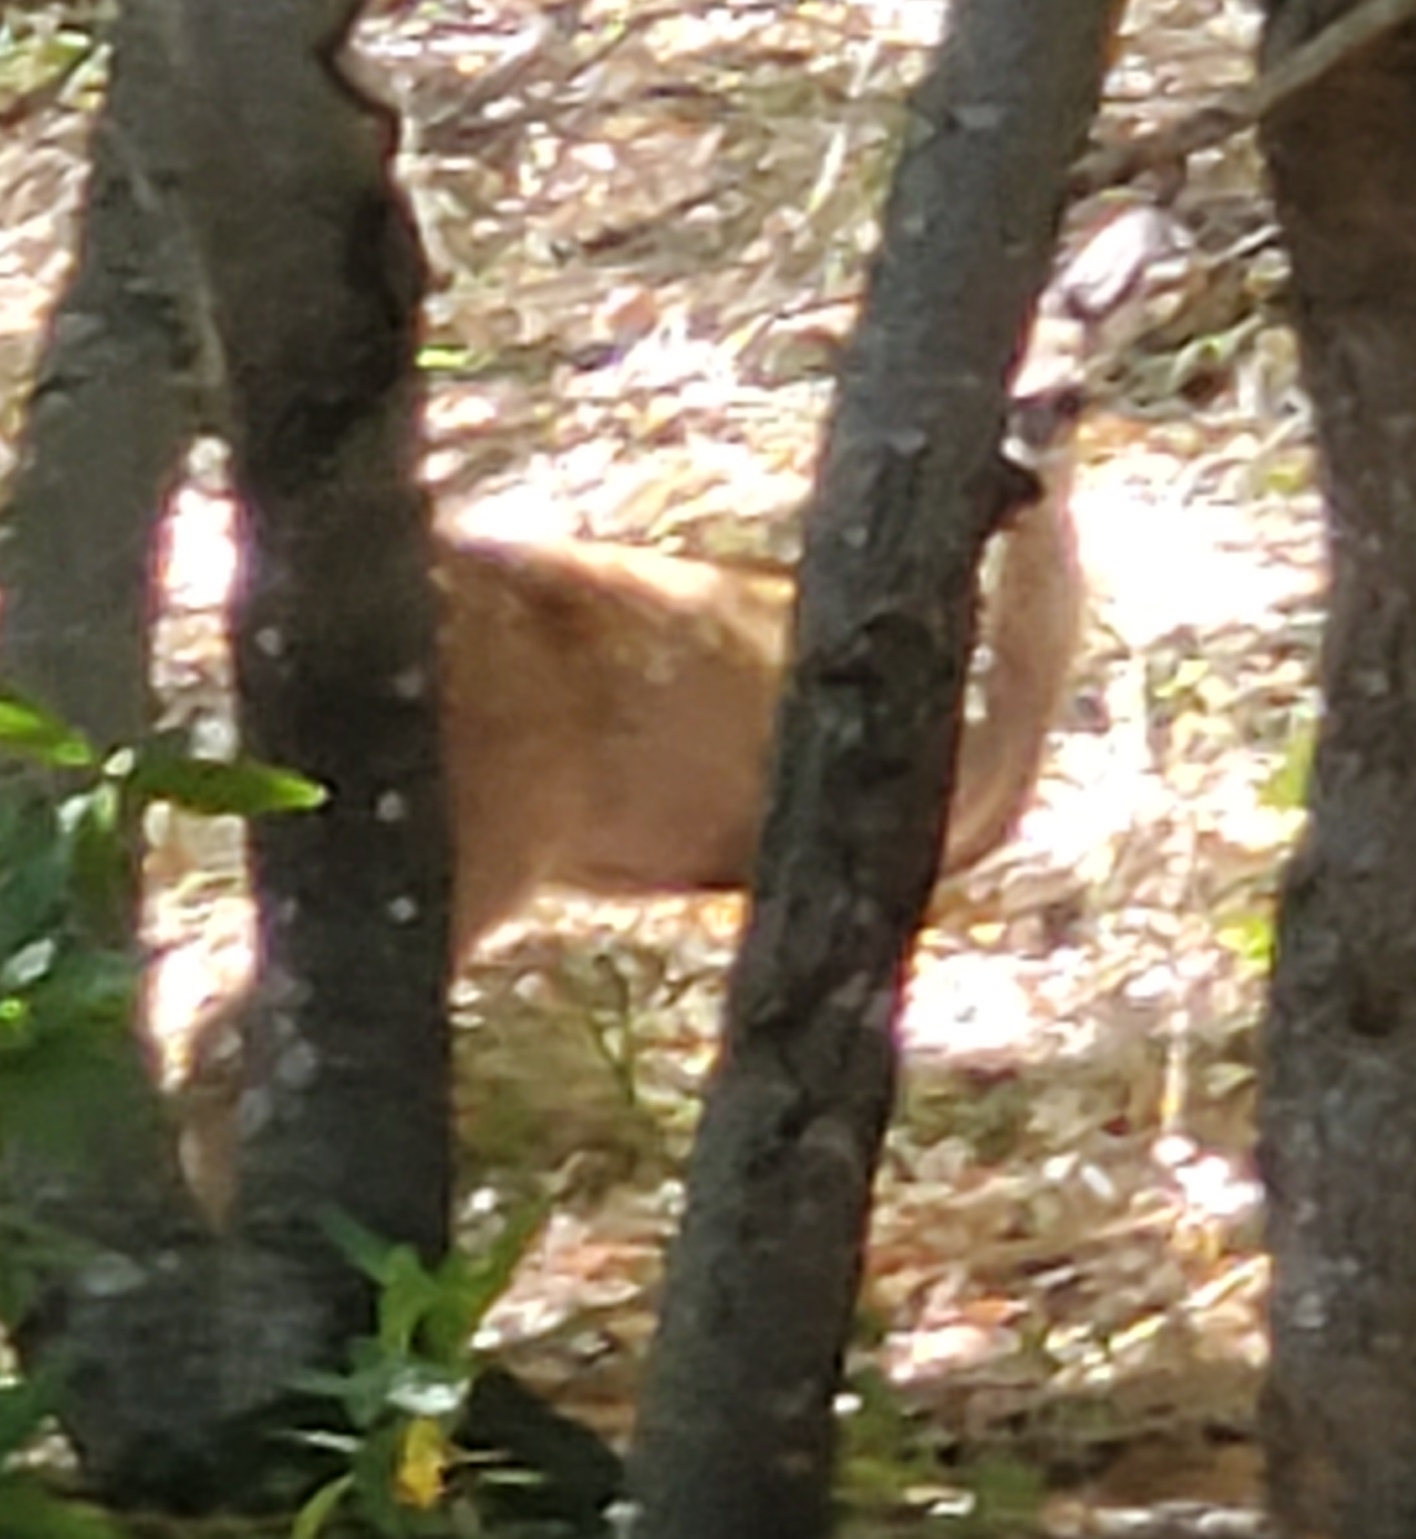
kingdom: Animalia
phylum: Chordata
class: Mammalia
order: Artiodactyla
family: Cervidae
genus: Odocoileus
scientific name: Odocoileus hemionus
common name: Mule deer
